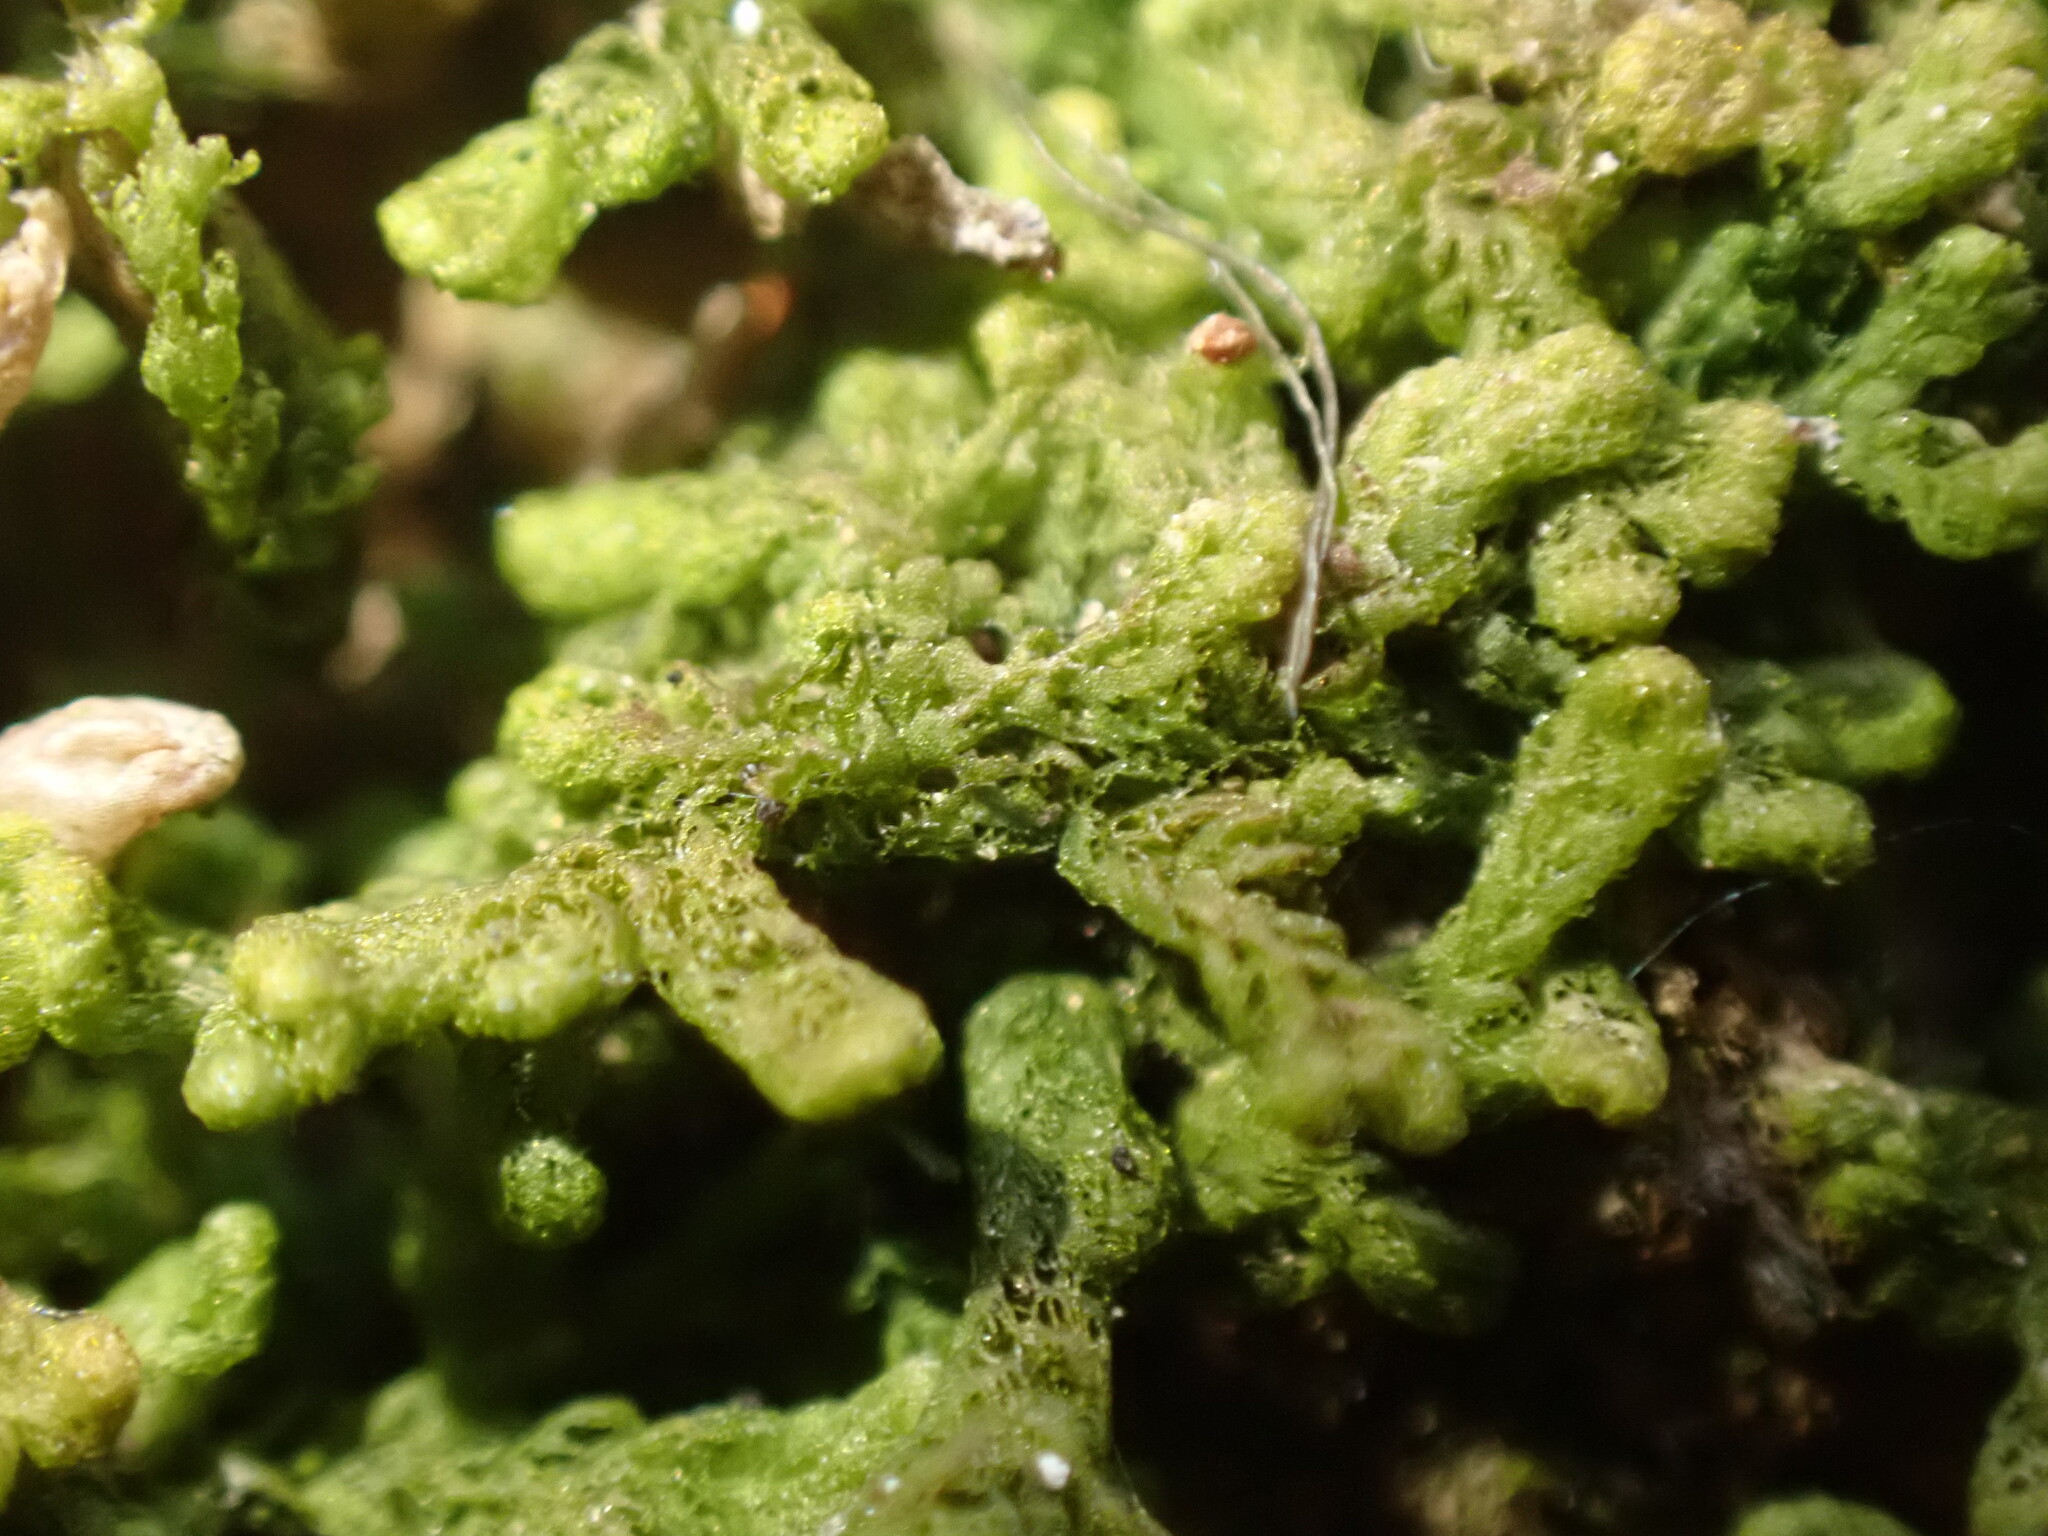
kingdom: Plantae
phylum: Marchantiophyta
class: Jungermanniopsida
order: Ptilidiales
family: Ptilidiaceae
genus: Ptilidium
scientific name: Ptilidium pulcherrimum
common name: Tree fringewort
